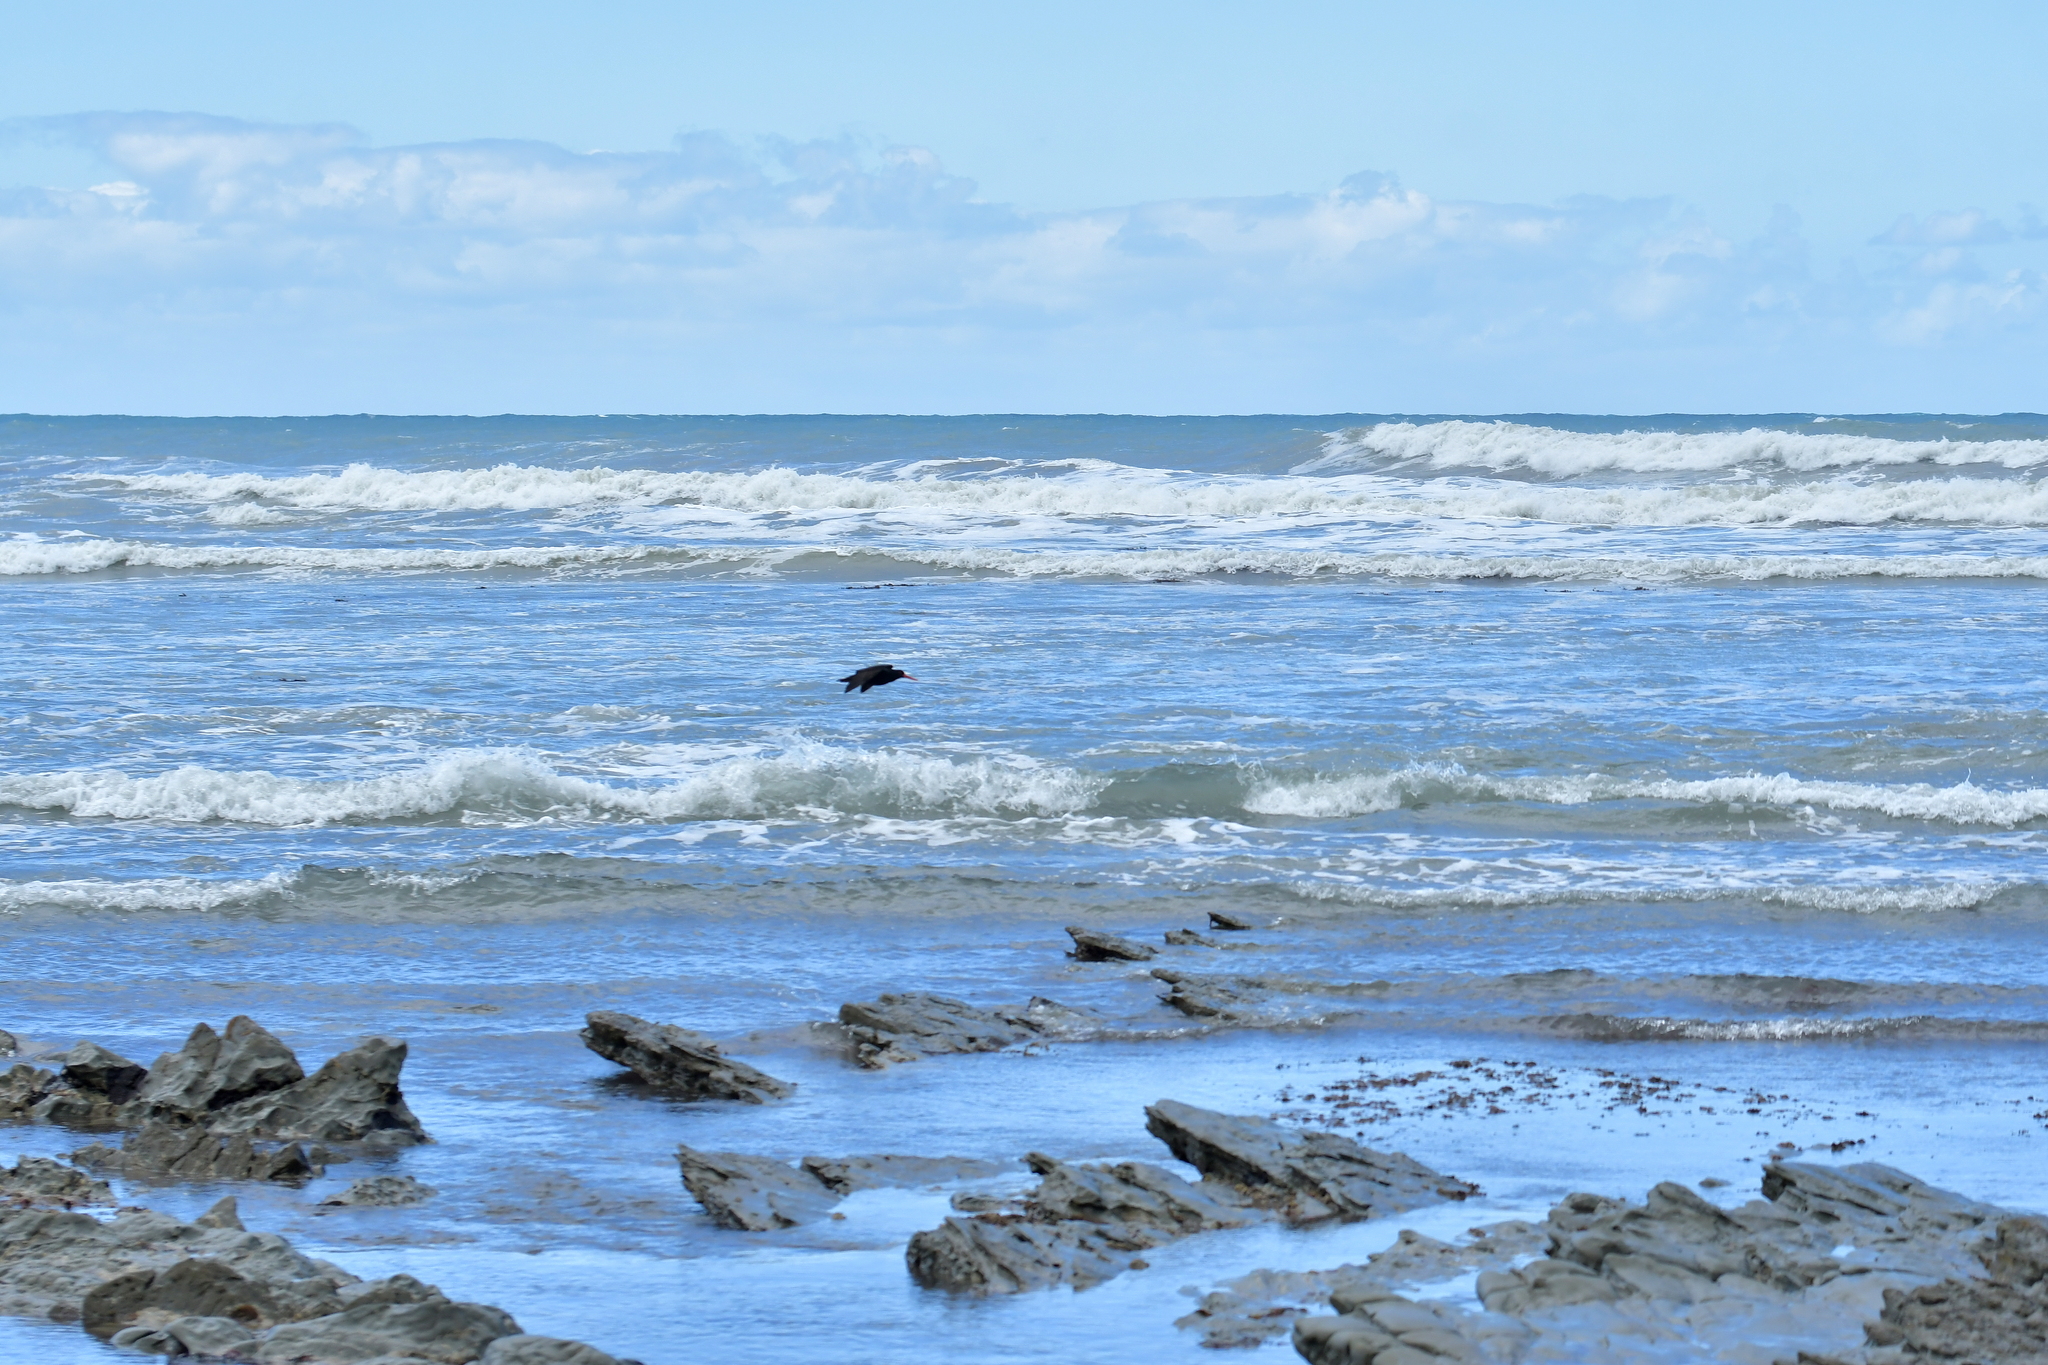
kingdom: Animalia
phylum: Chordata
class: Aves
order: Charadriiformes
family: Haematopodidae
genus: Haematopus
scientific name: Haematopus unicolor
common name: Variable oystercatcher
